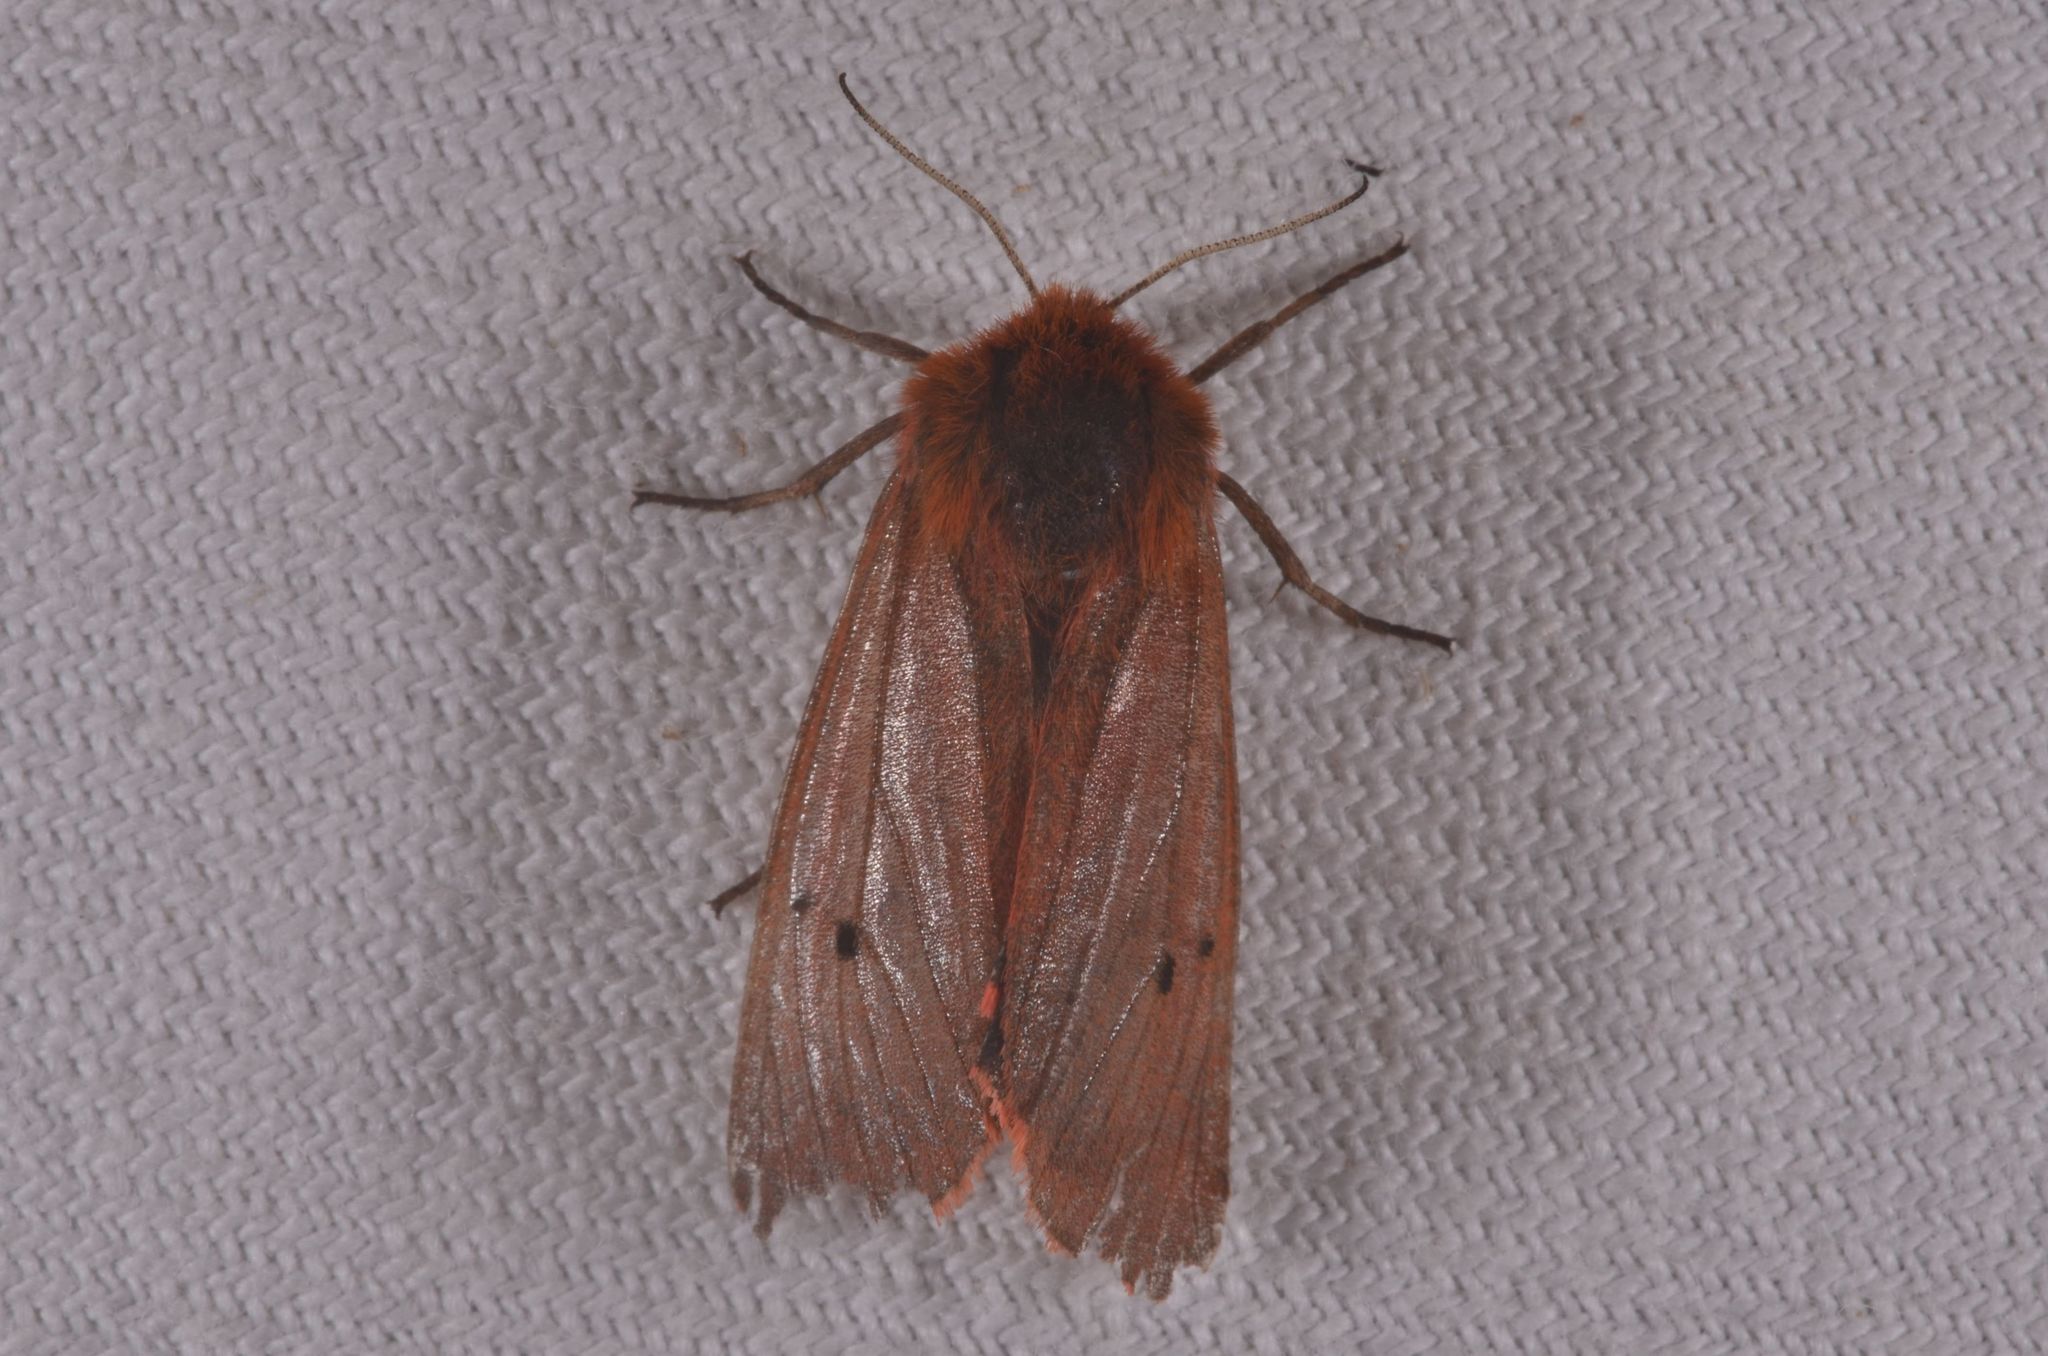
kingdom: Animalia
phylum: Arthropoda
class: Insecta
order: Lepidoptera
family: Erebidae
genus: Phragmatobia
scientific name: Phragmatobia fuliginosa
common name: Ruby tiger
